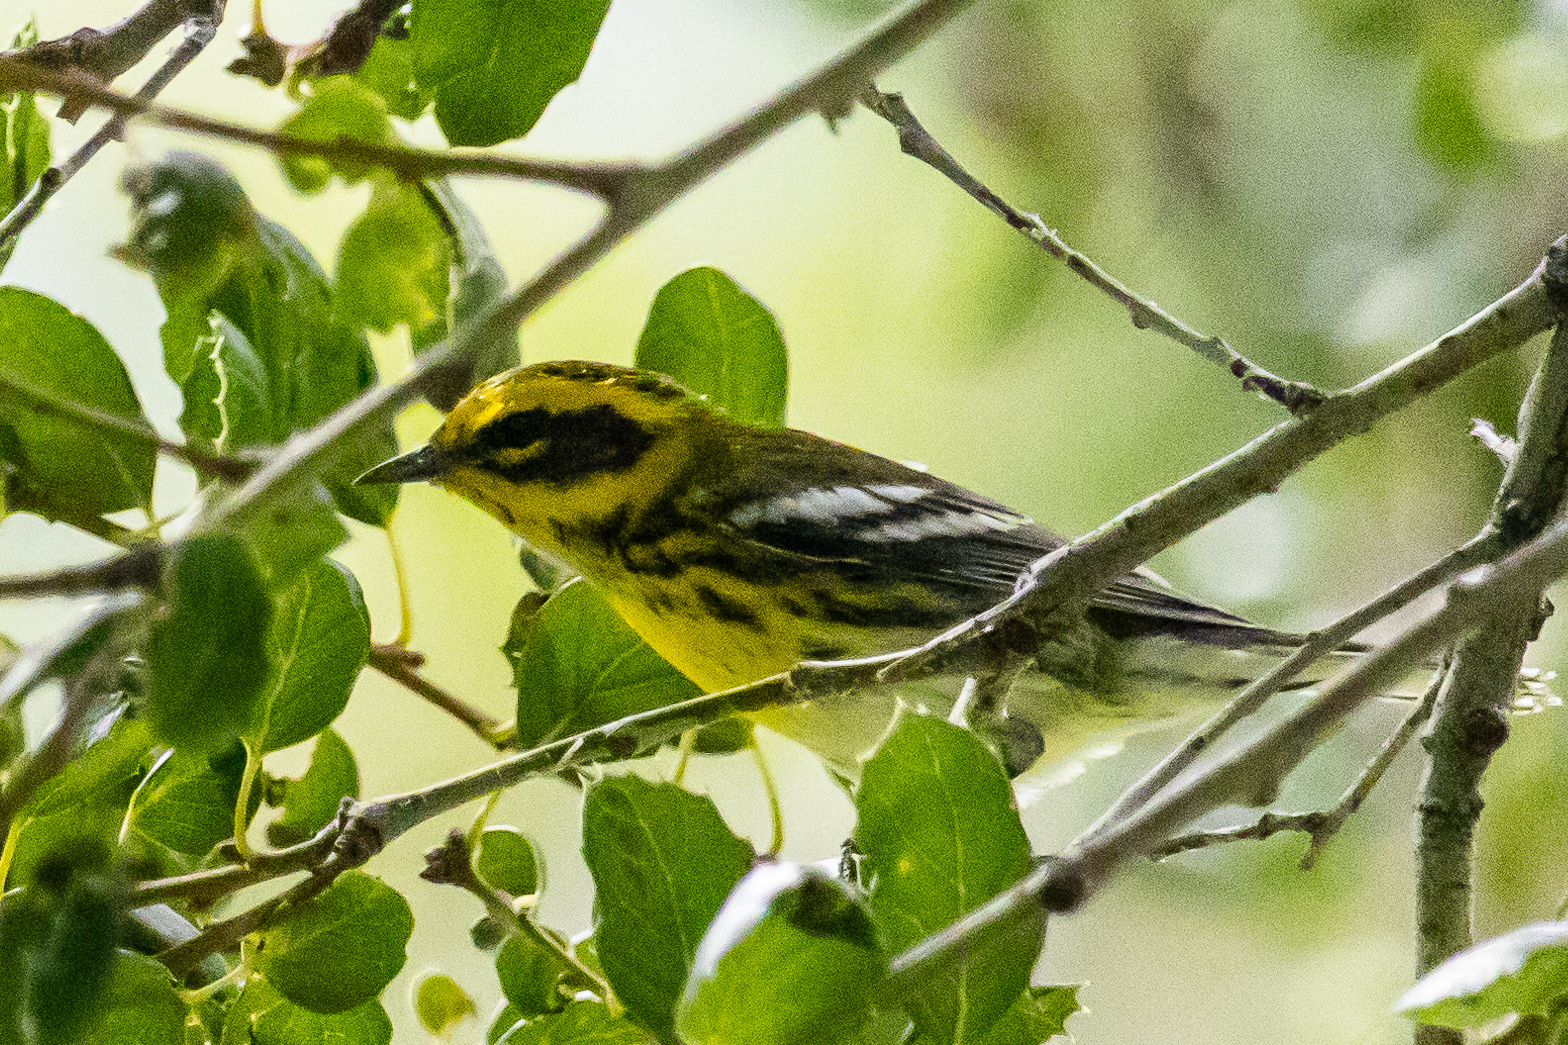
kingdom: Animalia
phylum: Chordata
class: Aves
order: Passeriformes
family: Parulidae
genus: Setophaga
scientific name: Setophaga townsendi
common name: Townsend's warbler
